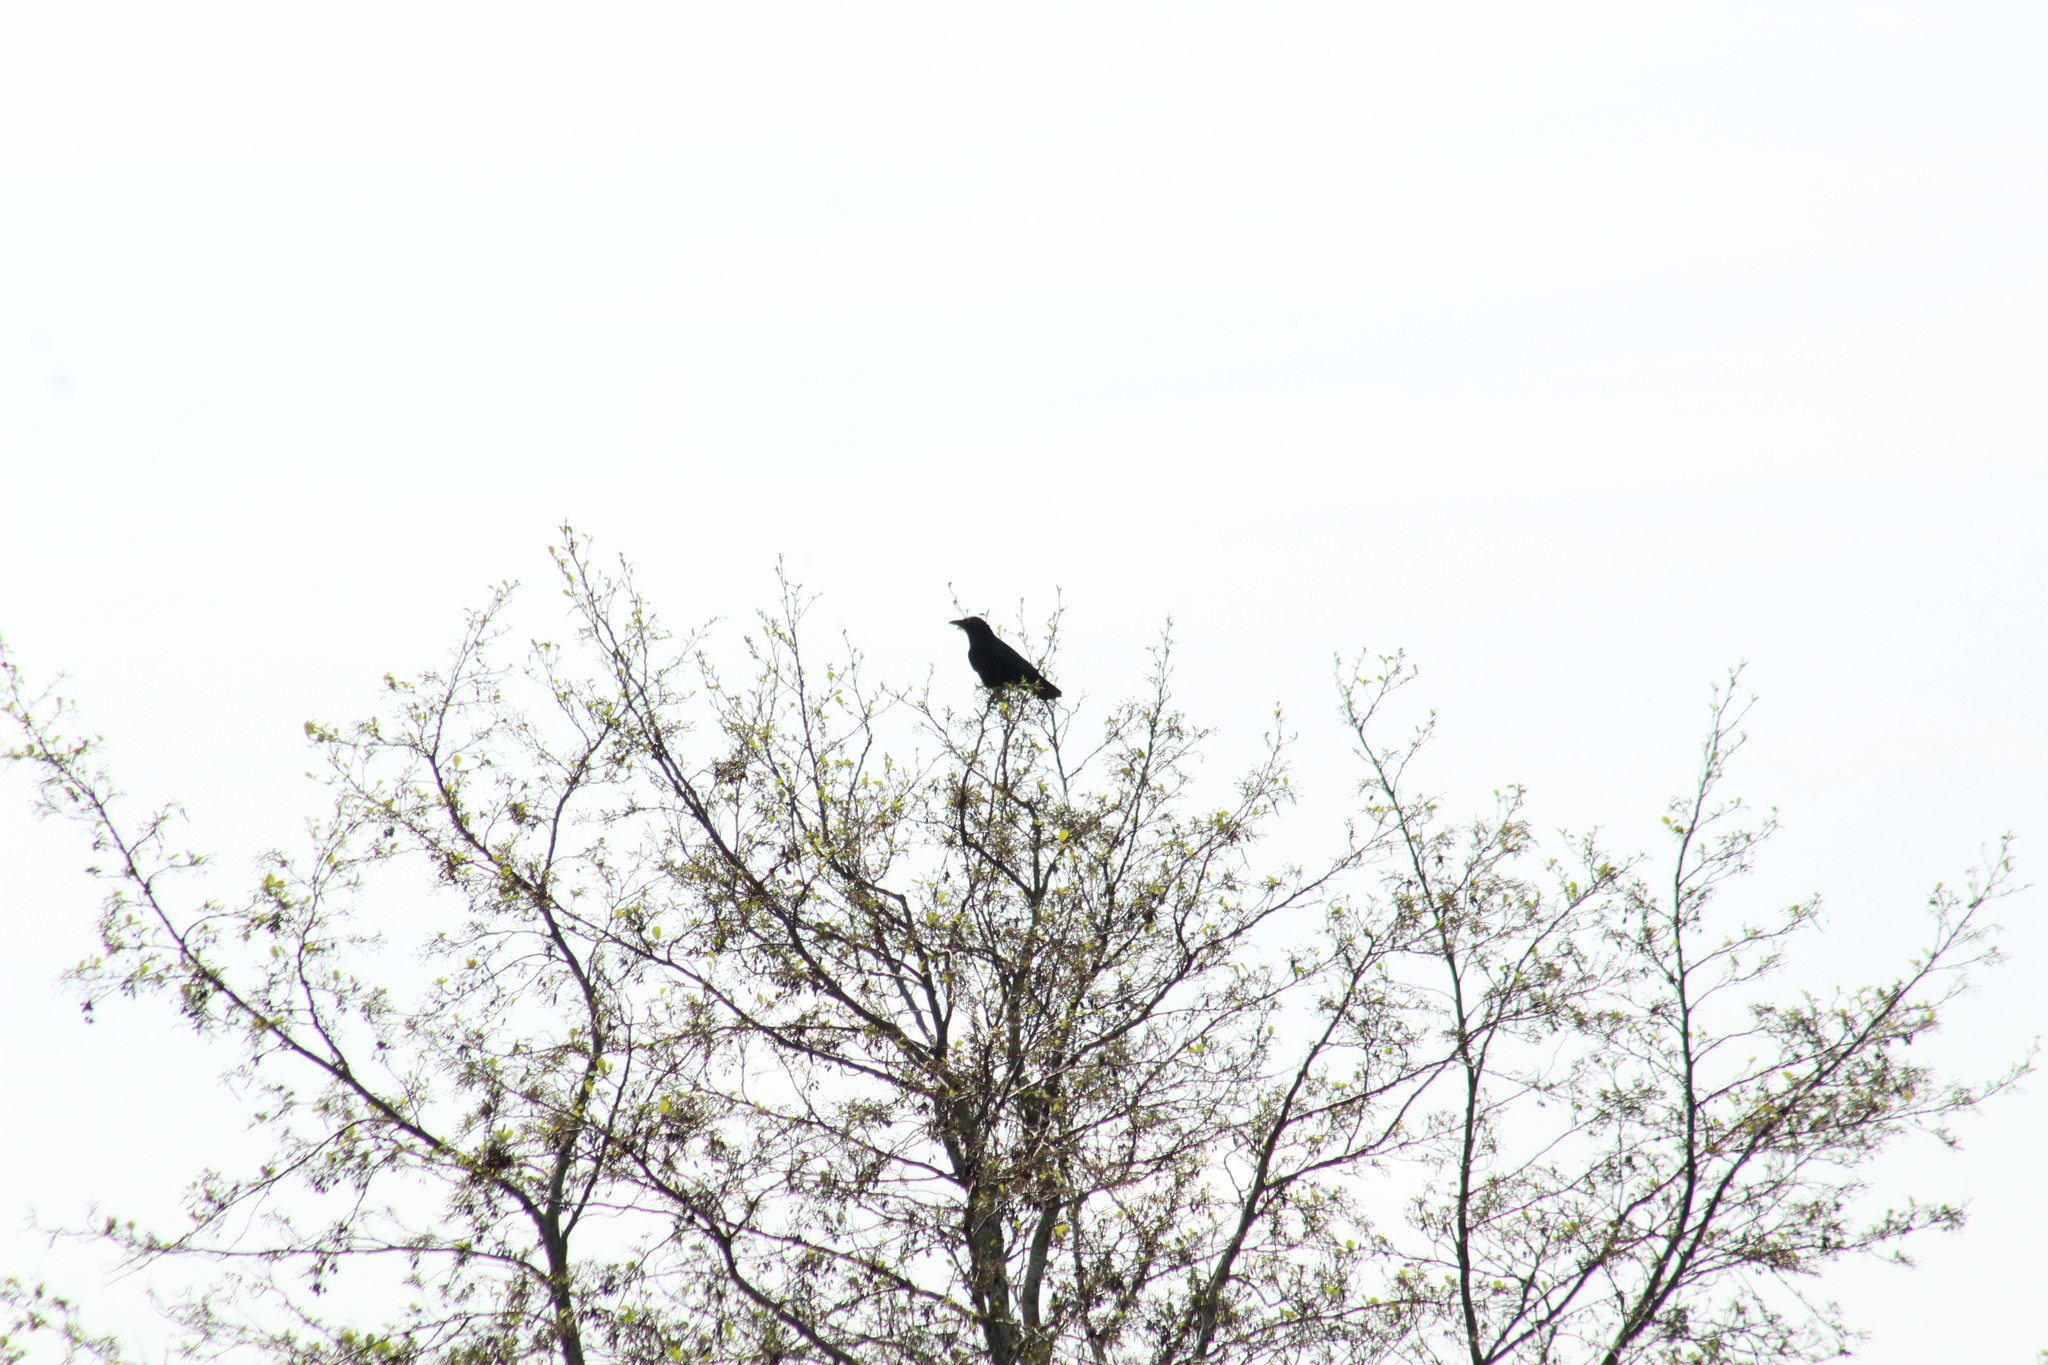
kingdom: Animalia
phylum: Chordata
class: Aves
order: Passeriformes
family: Corvidae
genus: Corvus
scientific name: Corvus corone
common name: Carrion crow
